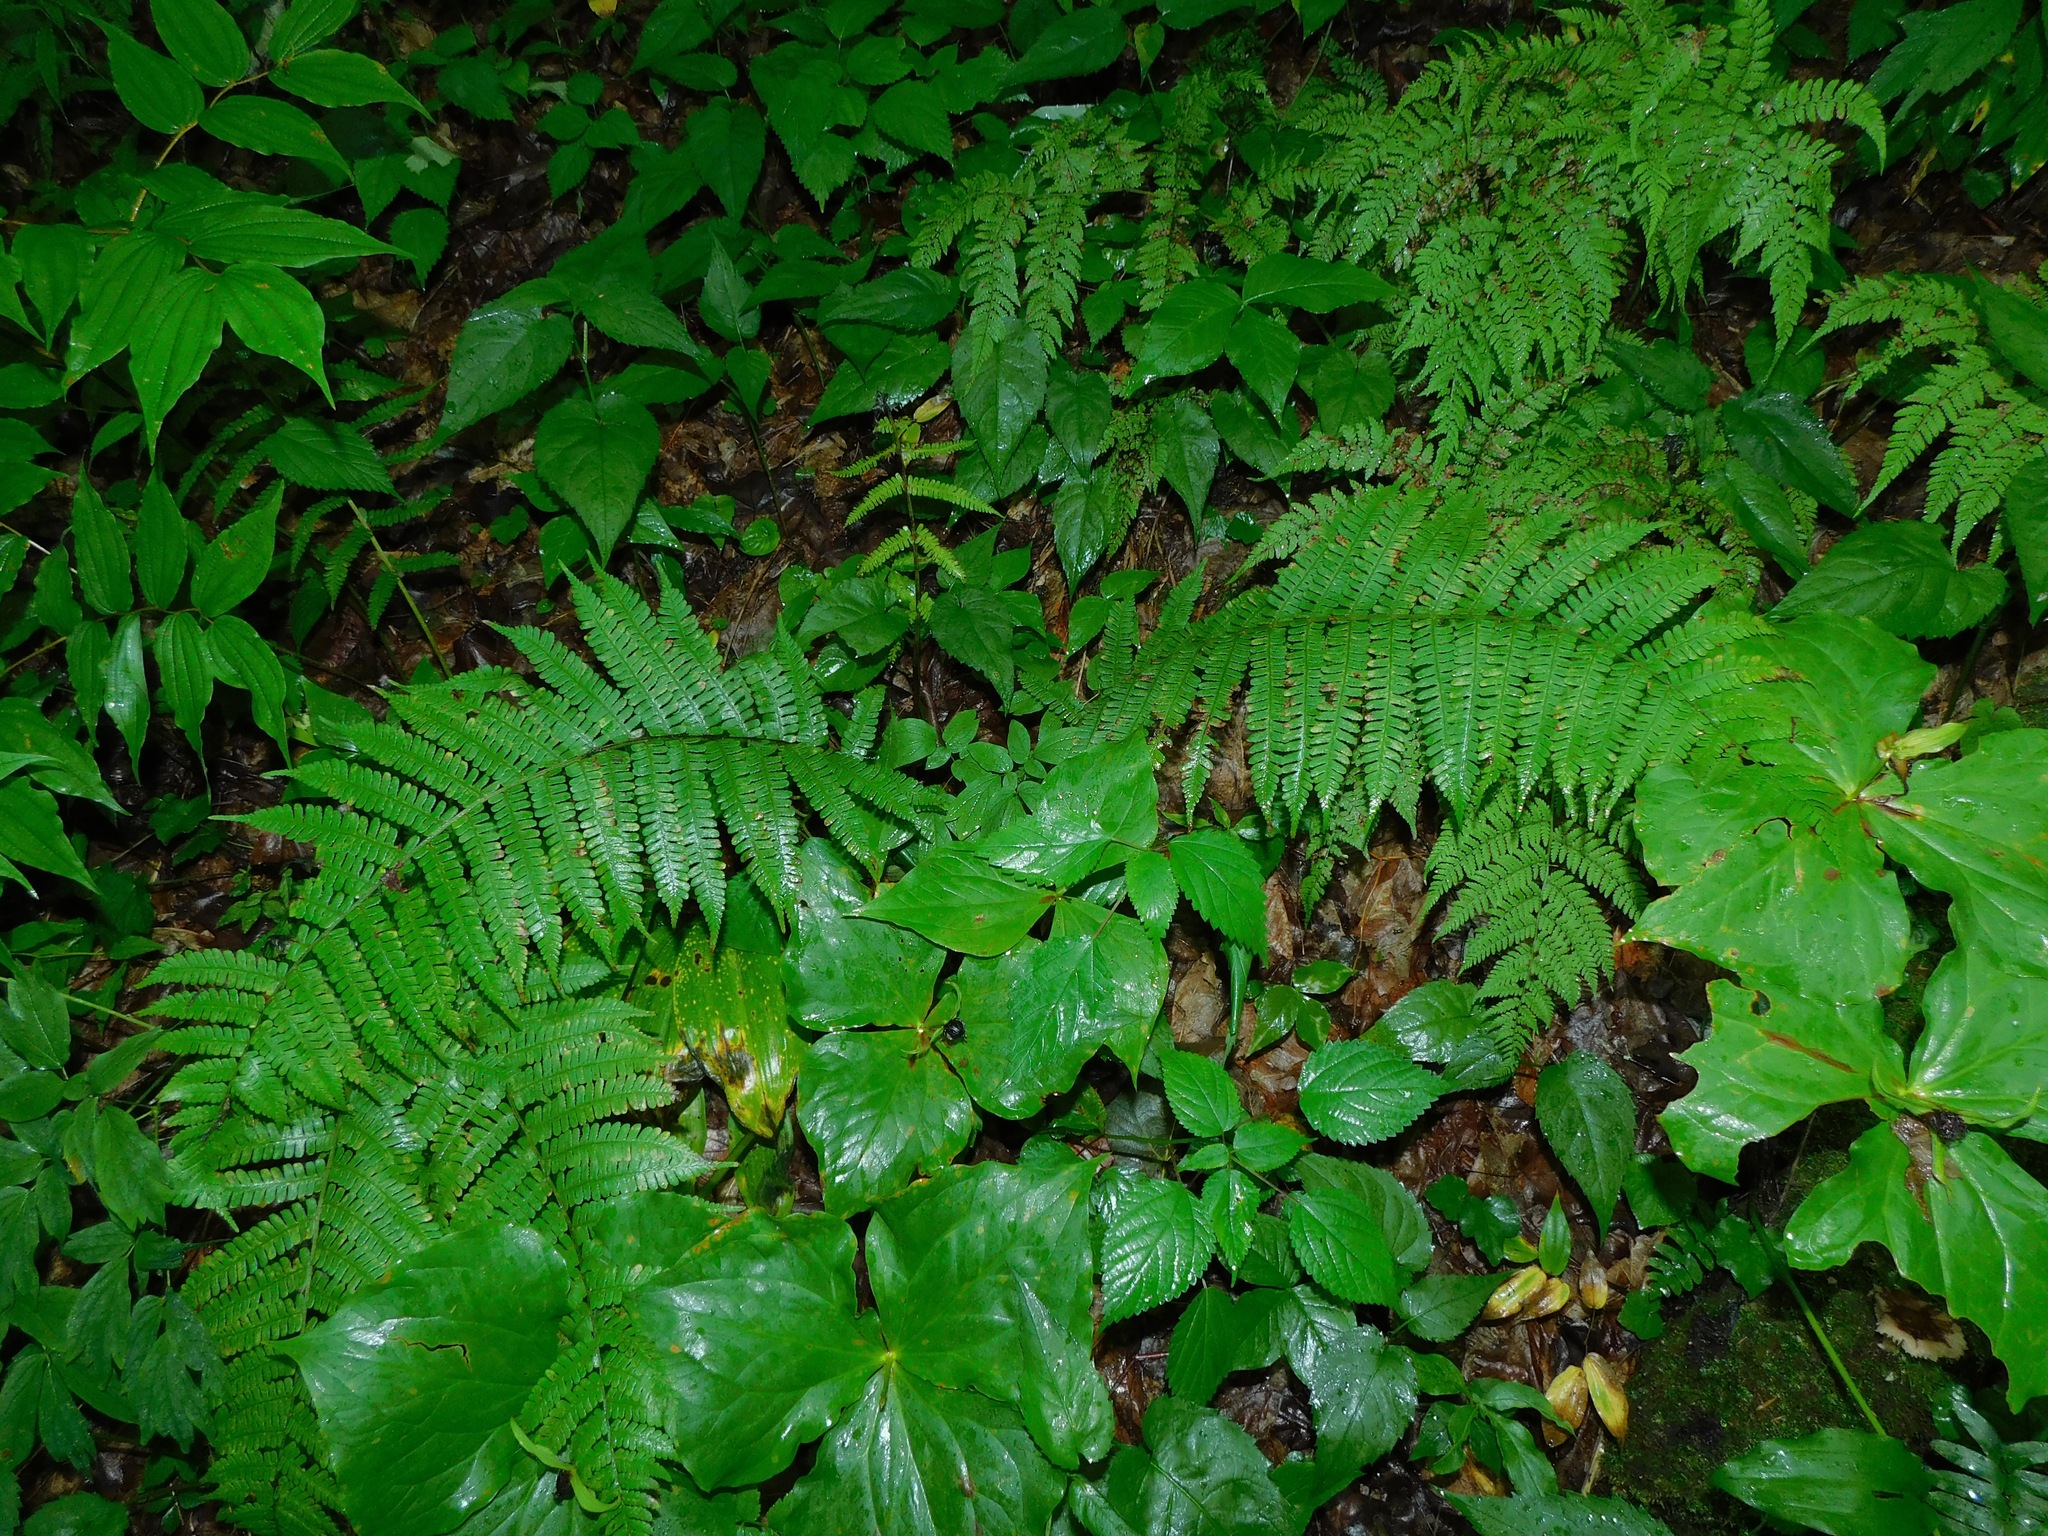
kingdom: Plantae
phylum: Tracheophyta
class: Polypodiopsida
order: Polypodiales
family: Athyriaceae
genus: Deparia
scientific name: Deparia acrostichoides
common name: Silver false spleenwort
